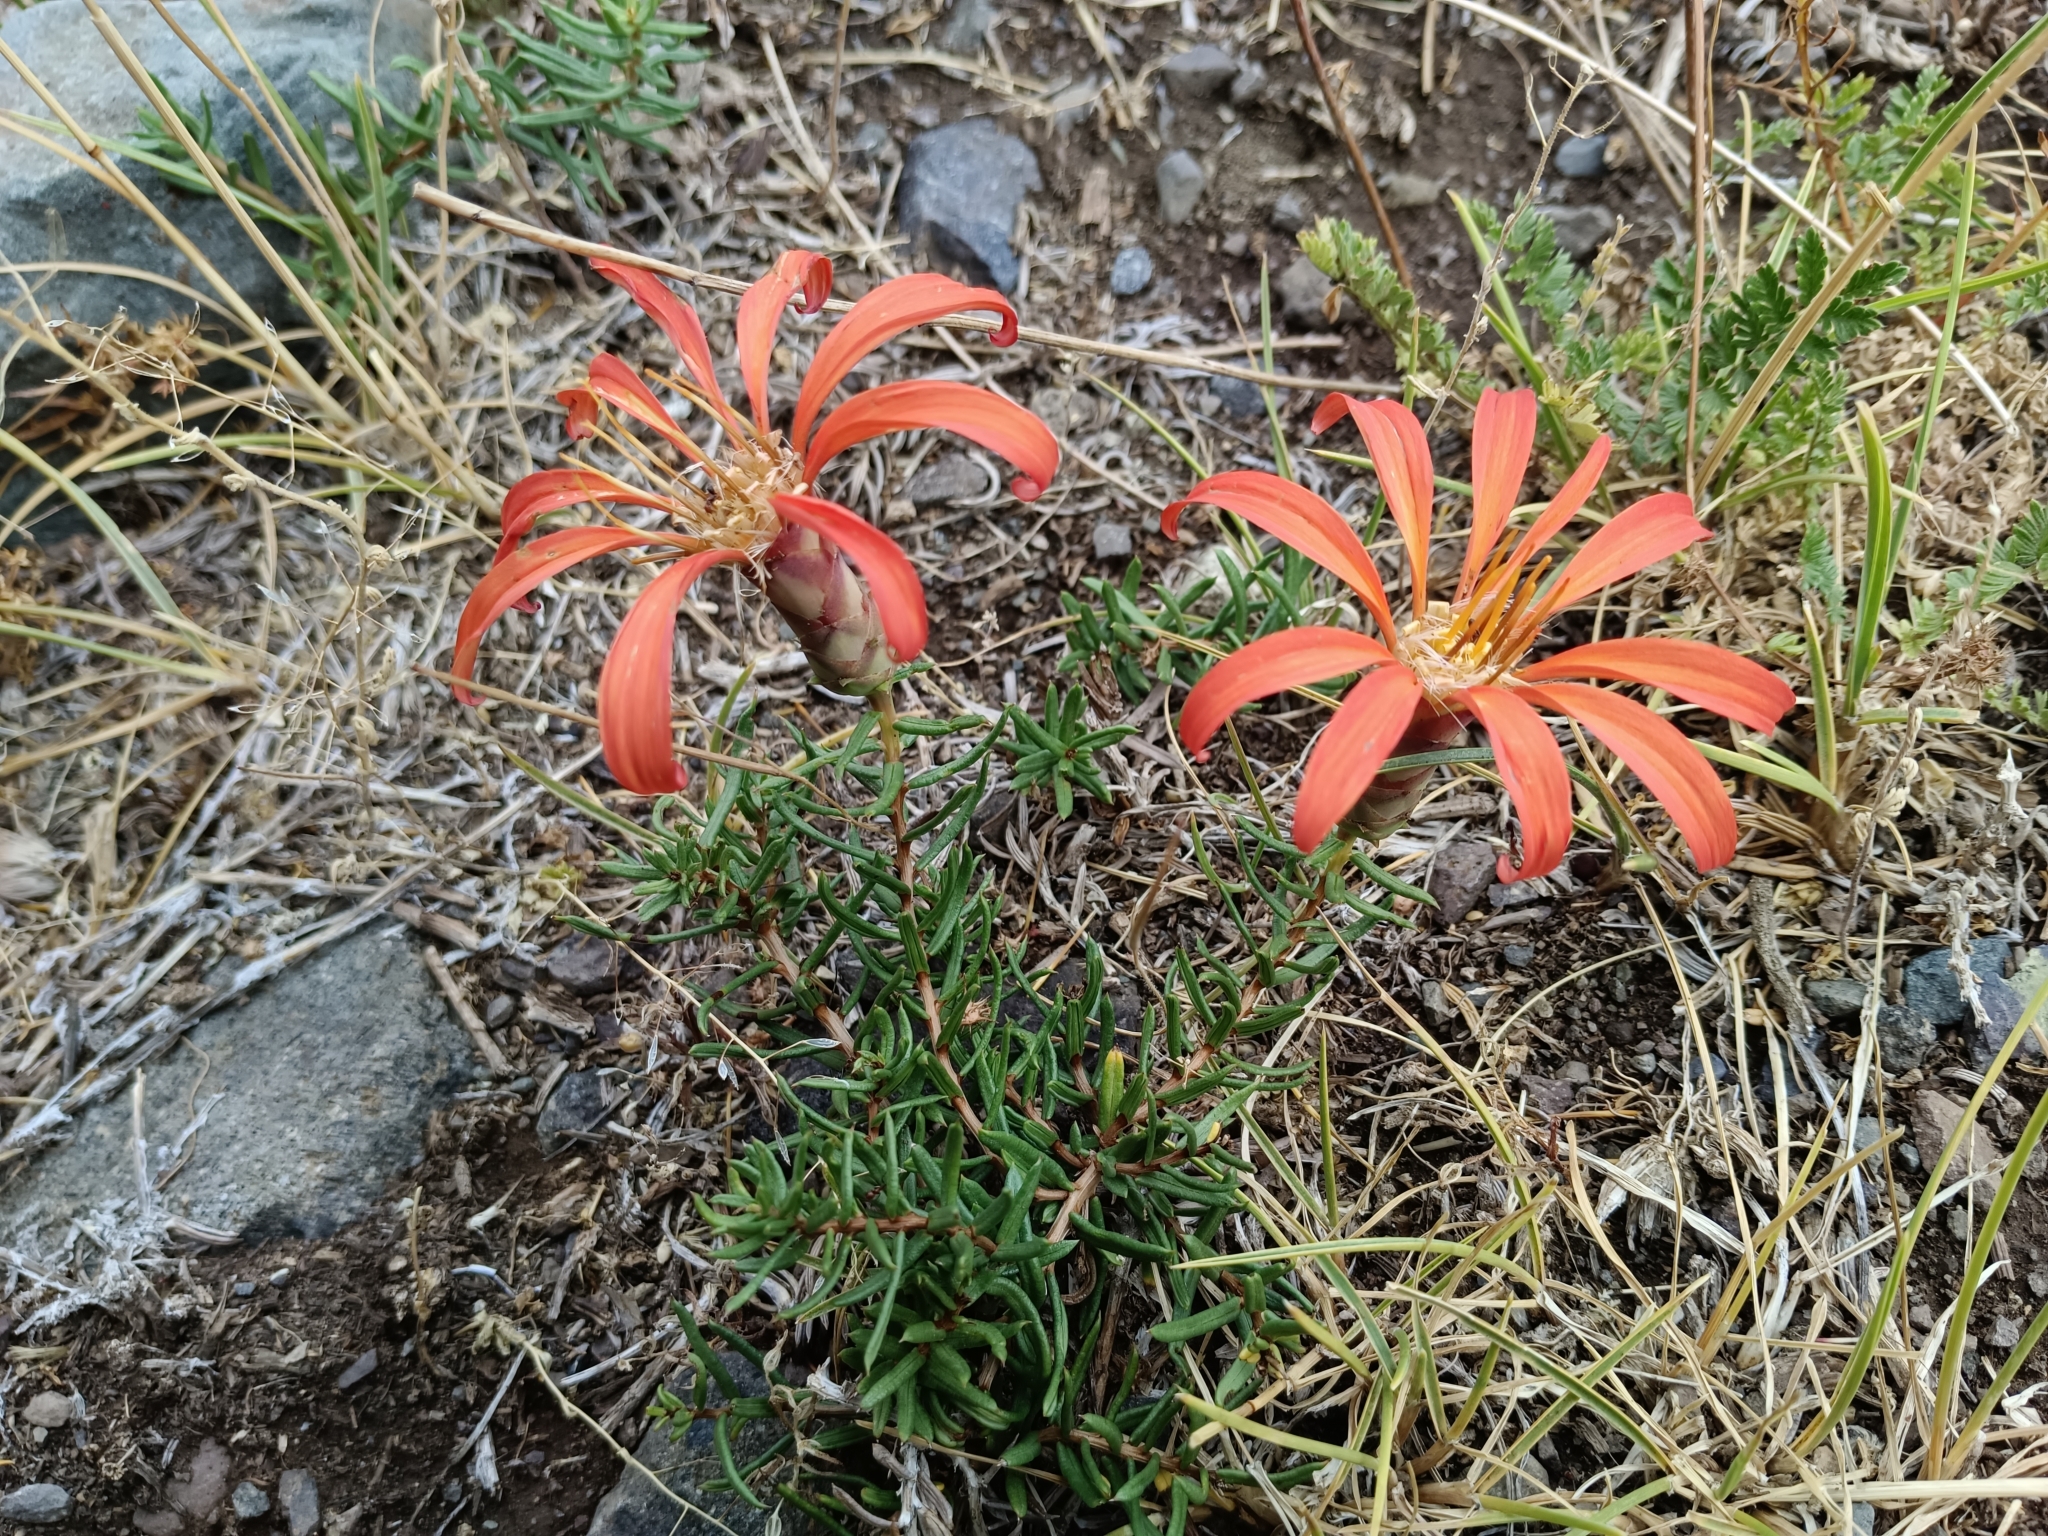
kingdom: Plantae
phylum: Tracheophyta
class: Magnoliopsida
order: Asterales
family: Asteraceae
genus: Mutisia
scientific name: Mutisia subulata
